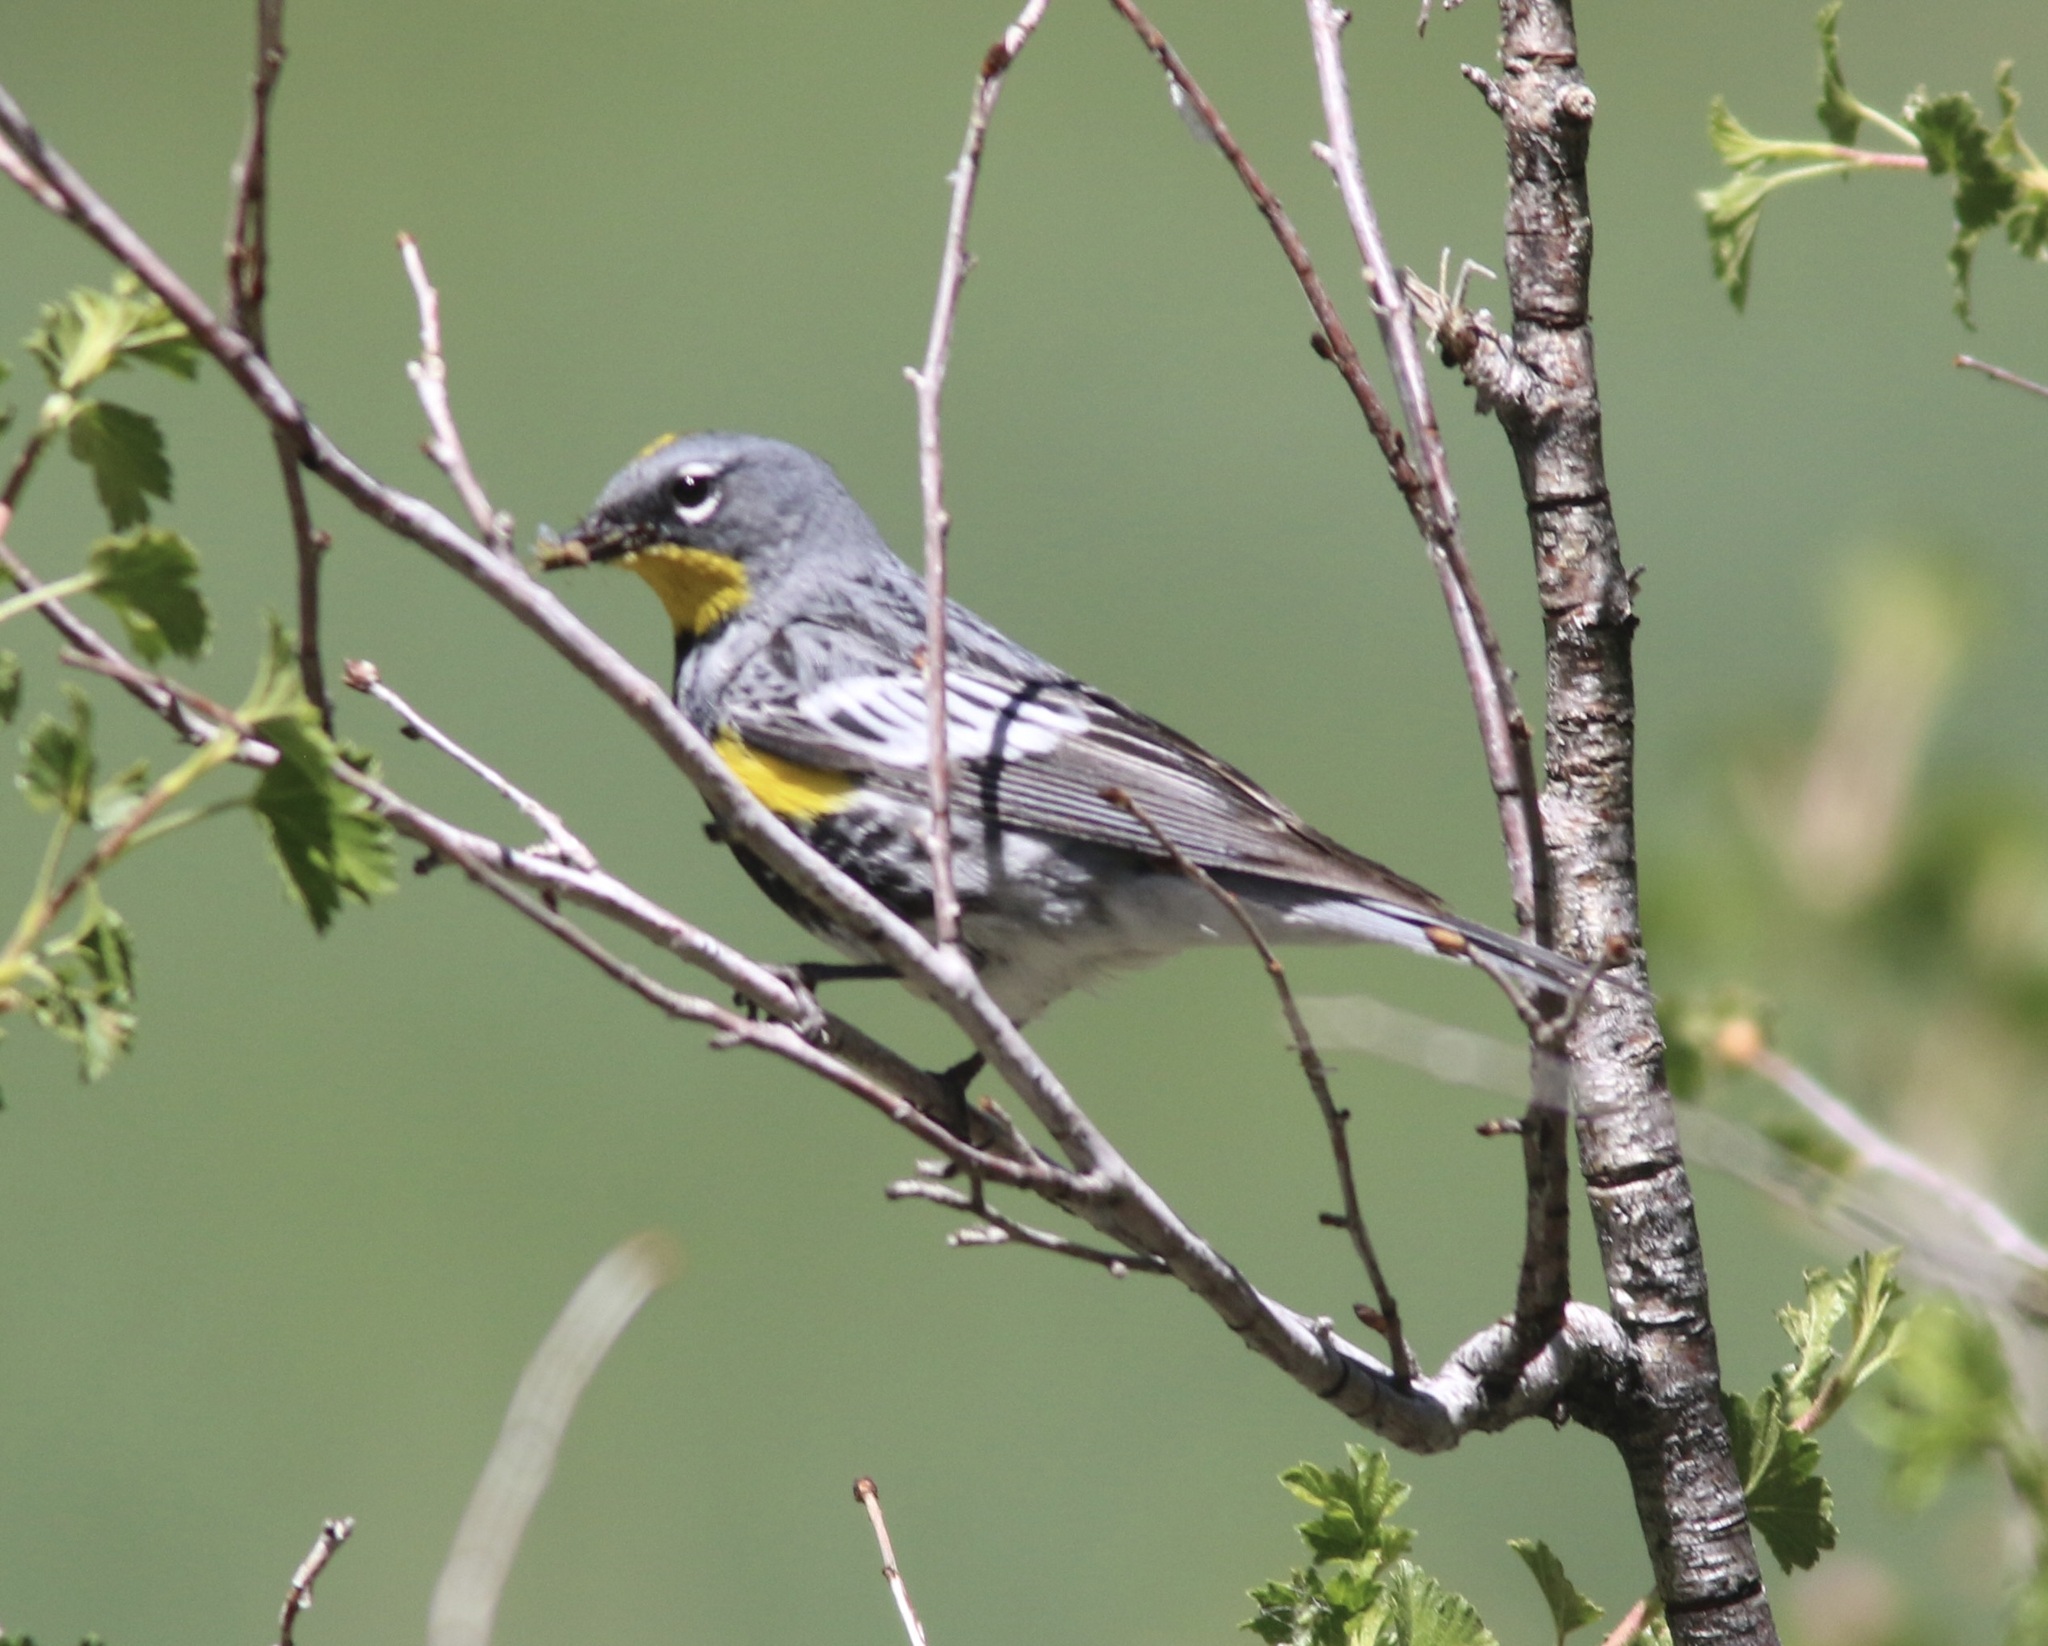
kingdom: Animalia
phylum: Chordata
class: Aves
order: Passeriformes
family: Parulidae
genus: Setophaga
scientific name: Setophaga coronata
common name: Myrtle warbler
